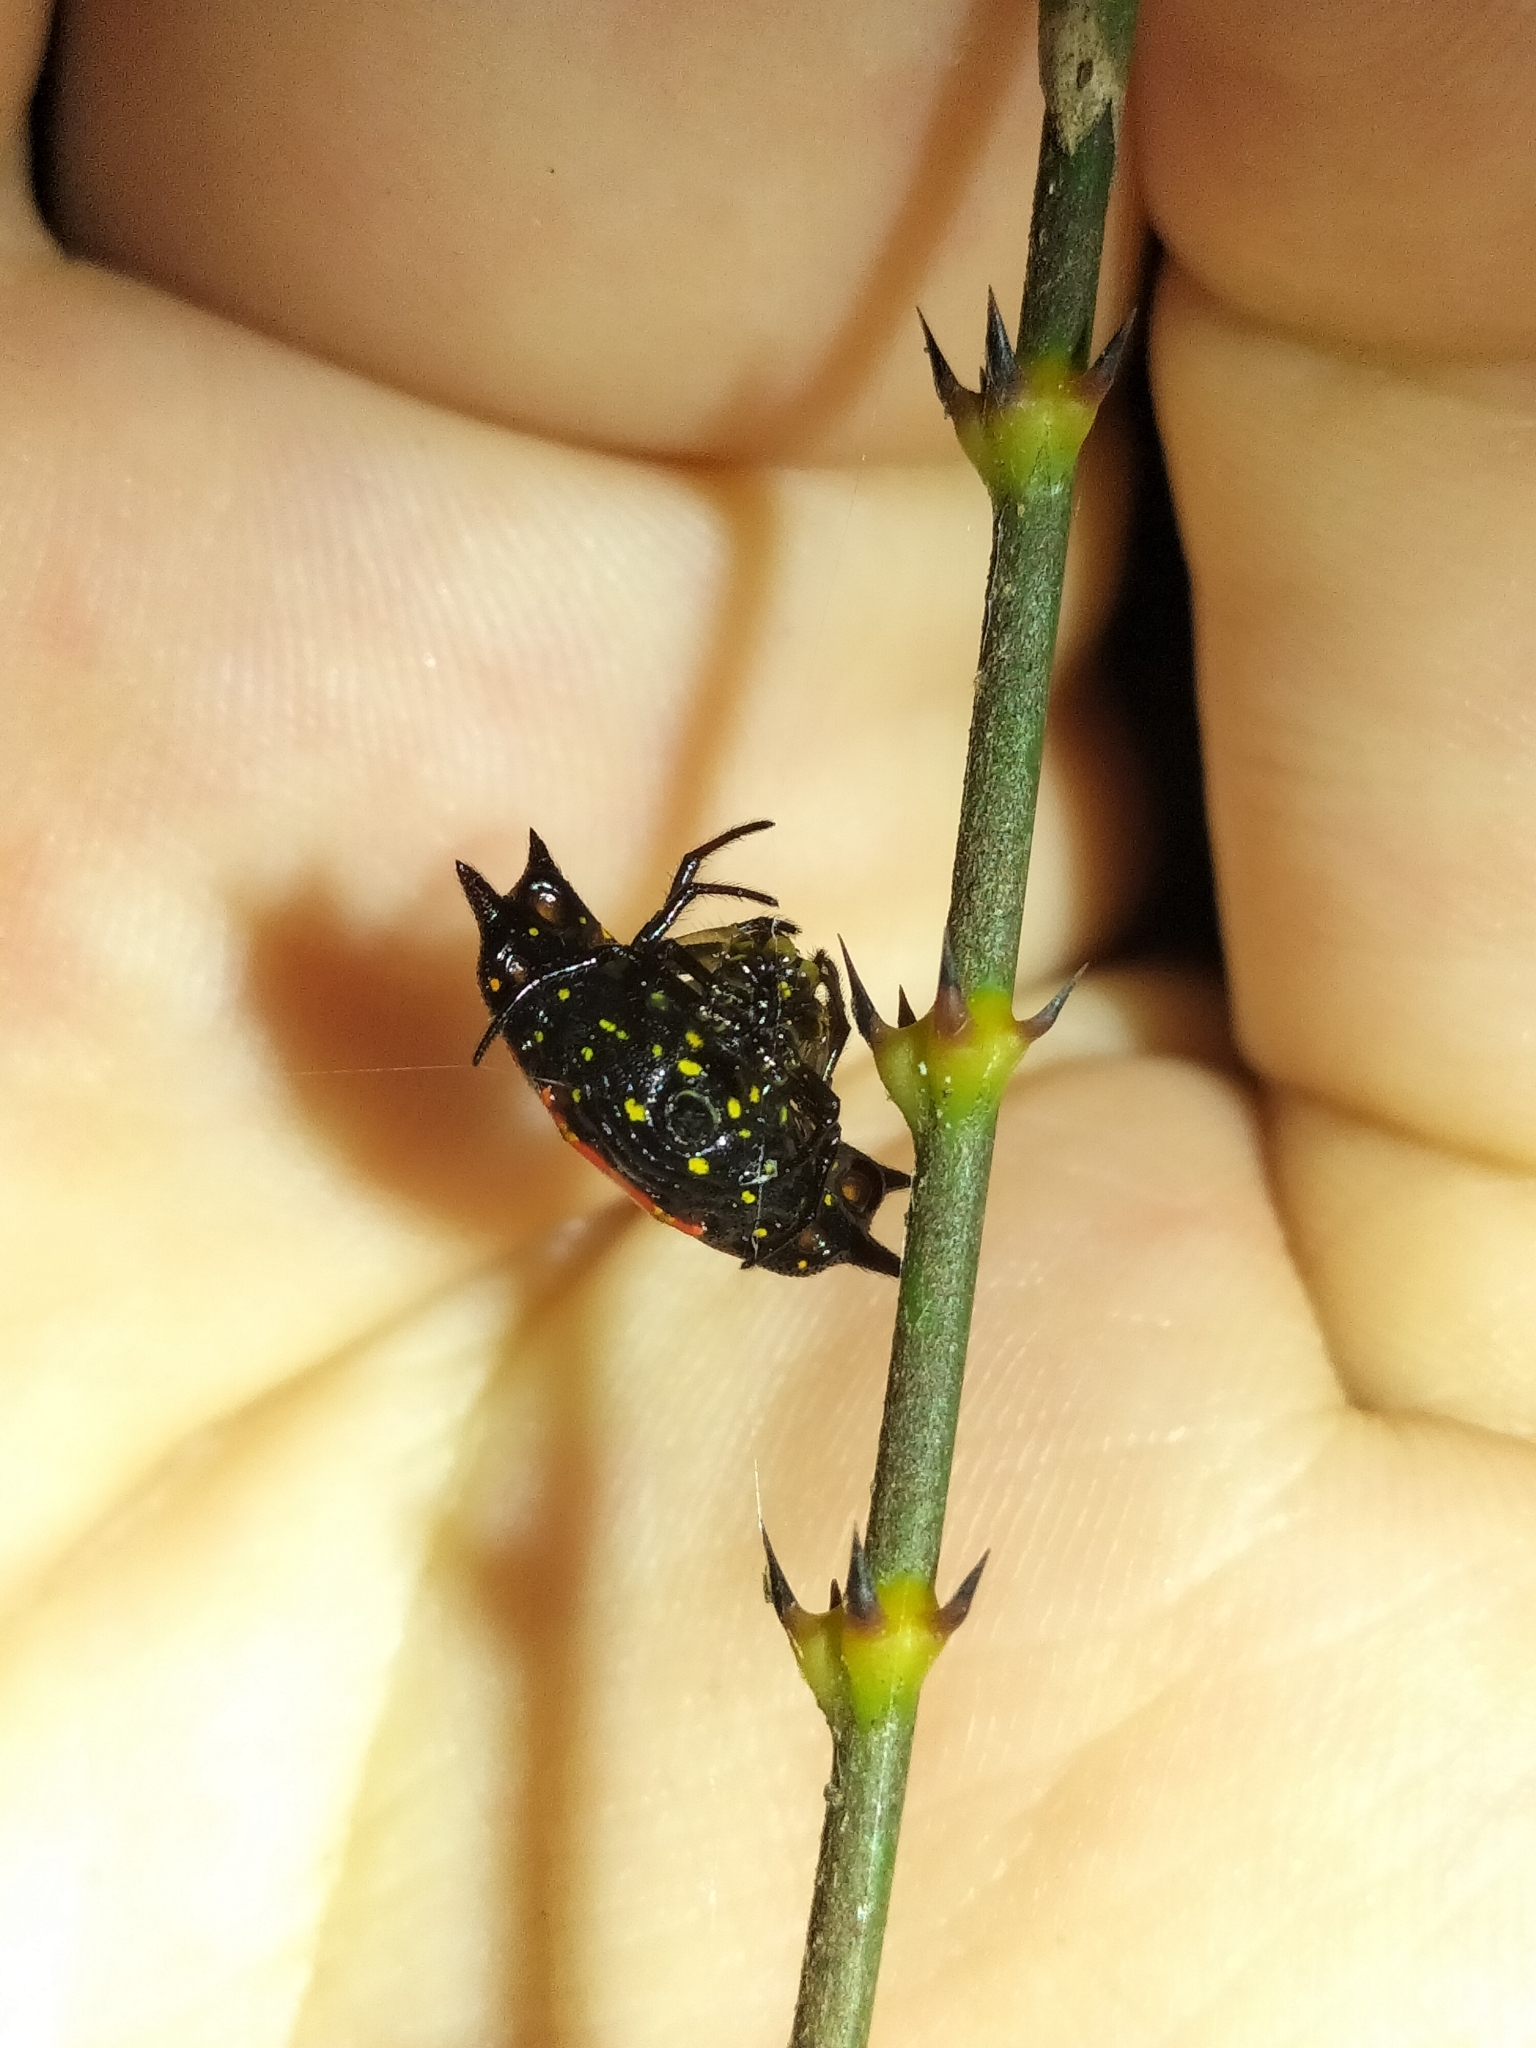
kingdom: Animalia
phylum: Arthropoda
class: Arachnida
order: Araneae
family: Araneidae
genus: Gasteracantha
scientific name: Gasteracantha quadrispinosa
